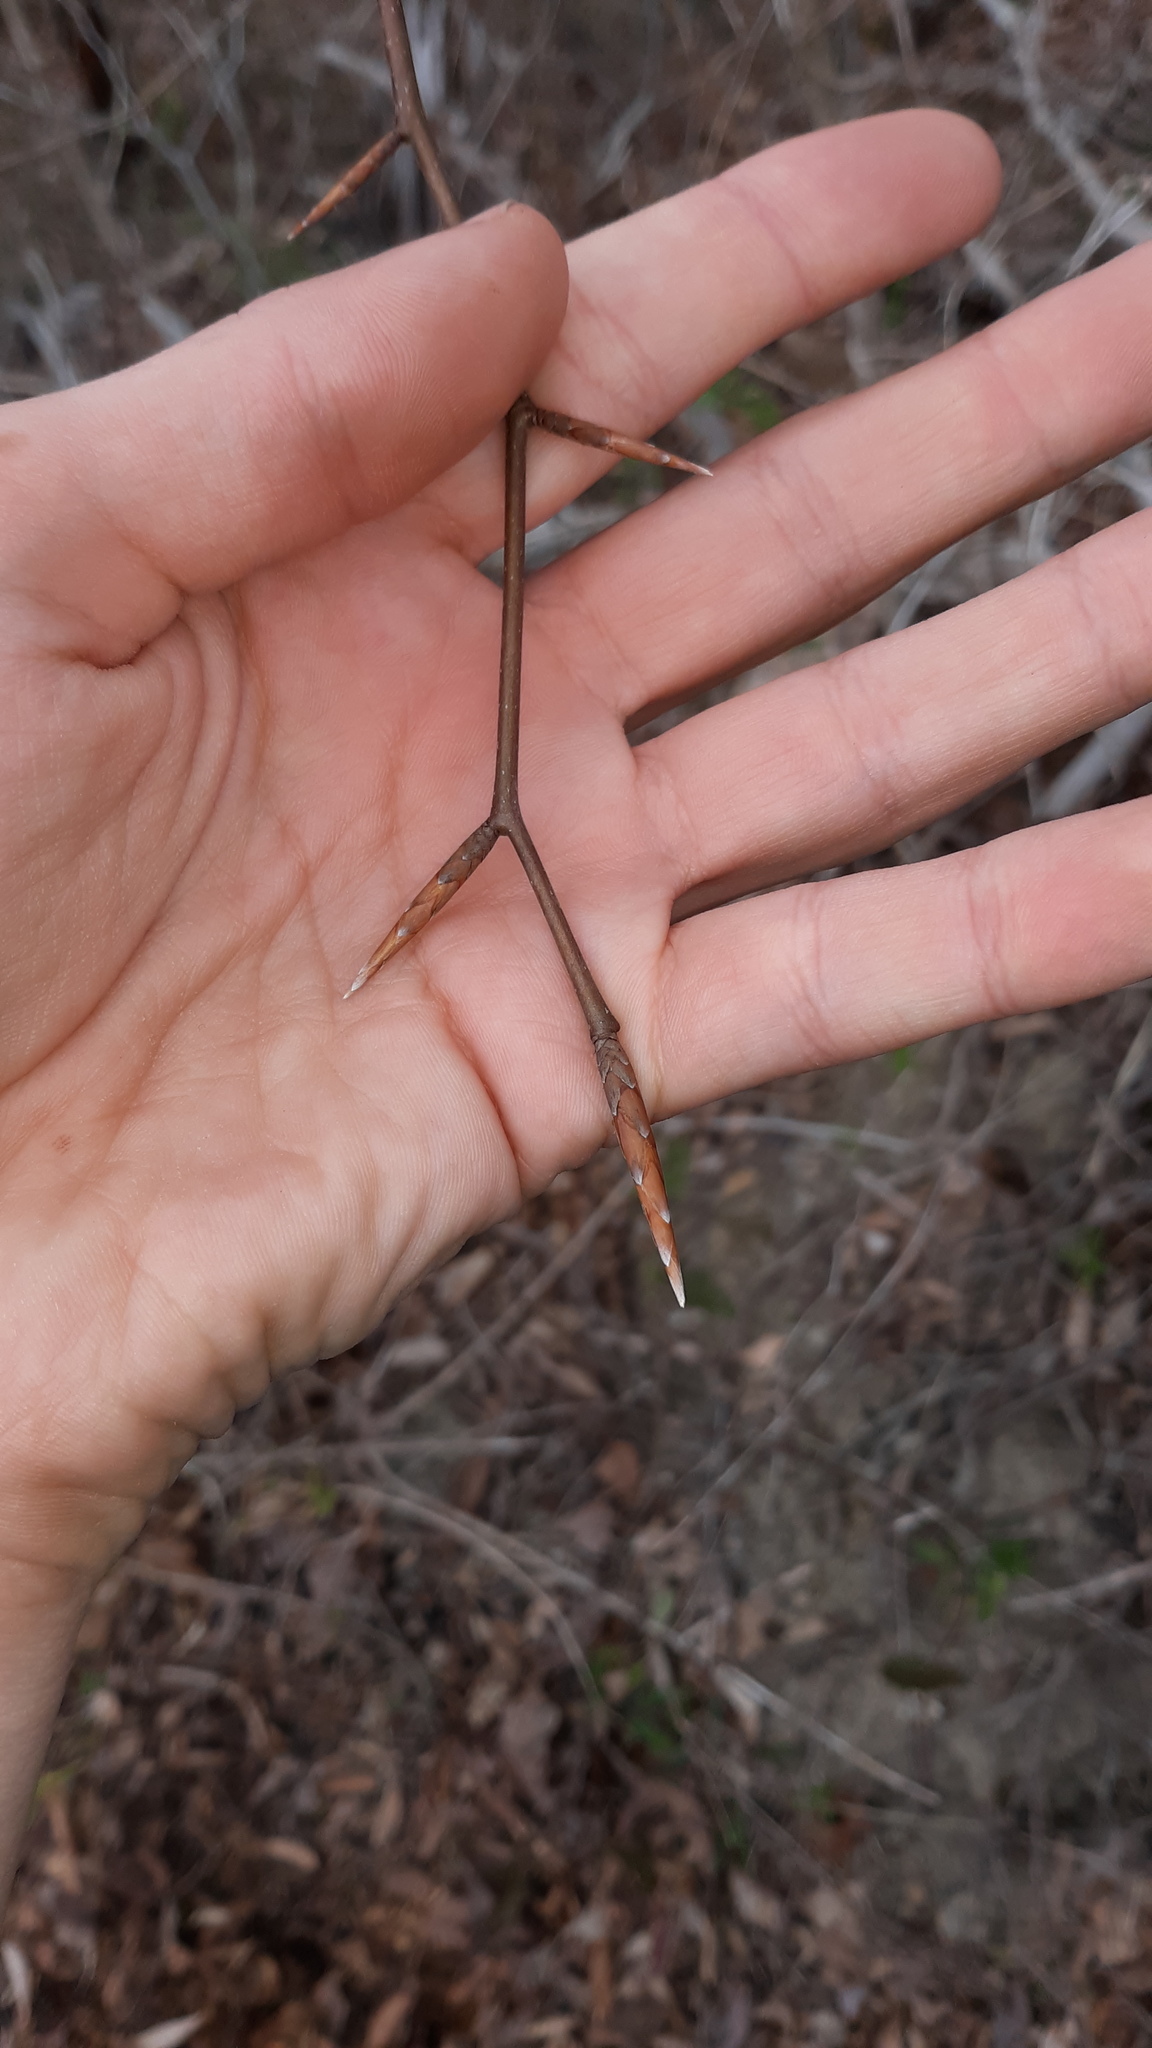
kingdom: Plantae
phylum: Tracheophyta
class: Magnoliopsida
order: Fagales
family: Fagaceae
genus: Fagus
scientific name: Fagus grandifolia
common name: American beech
